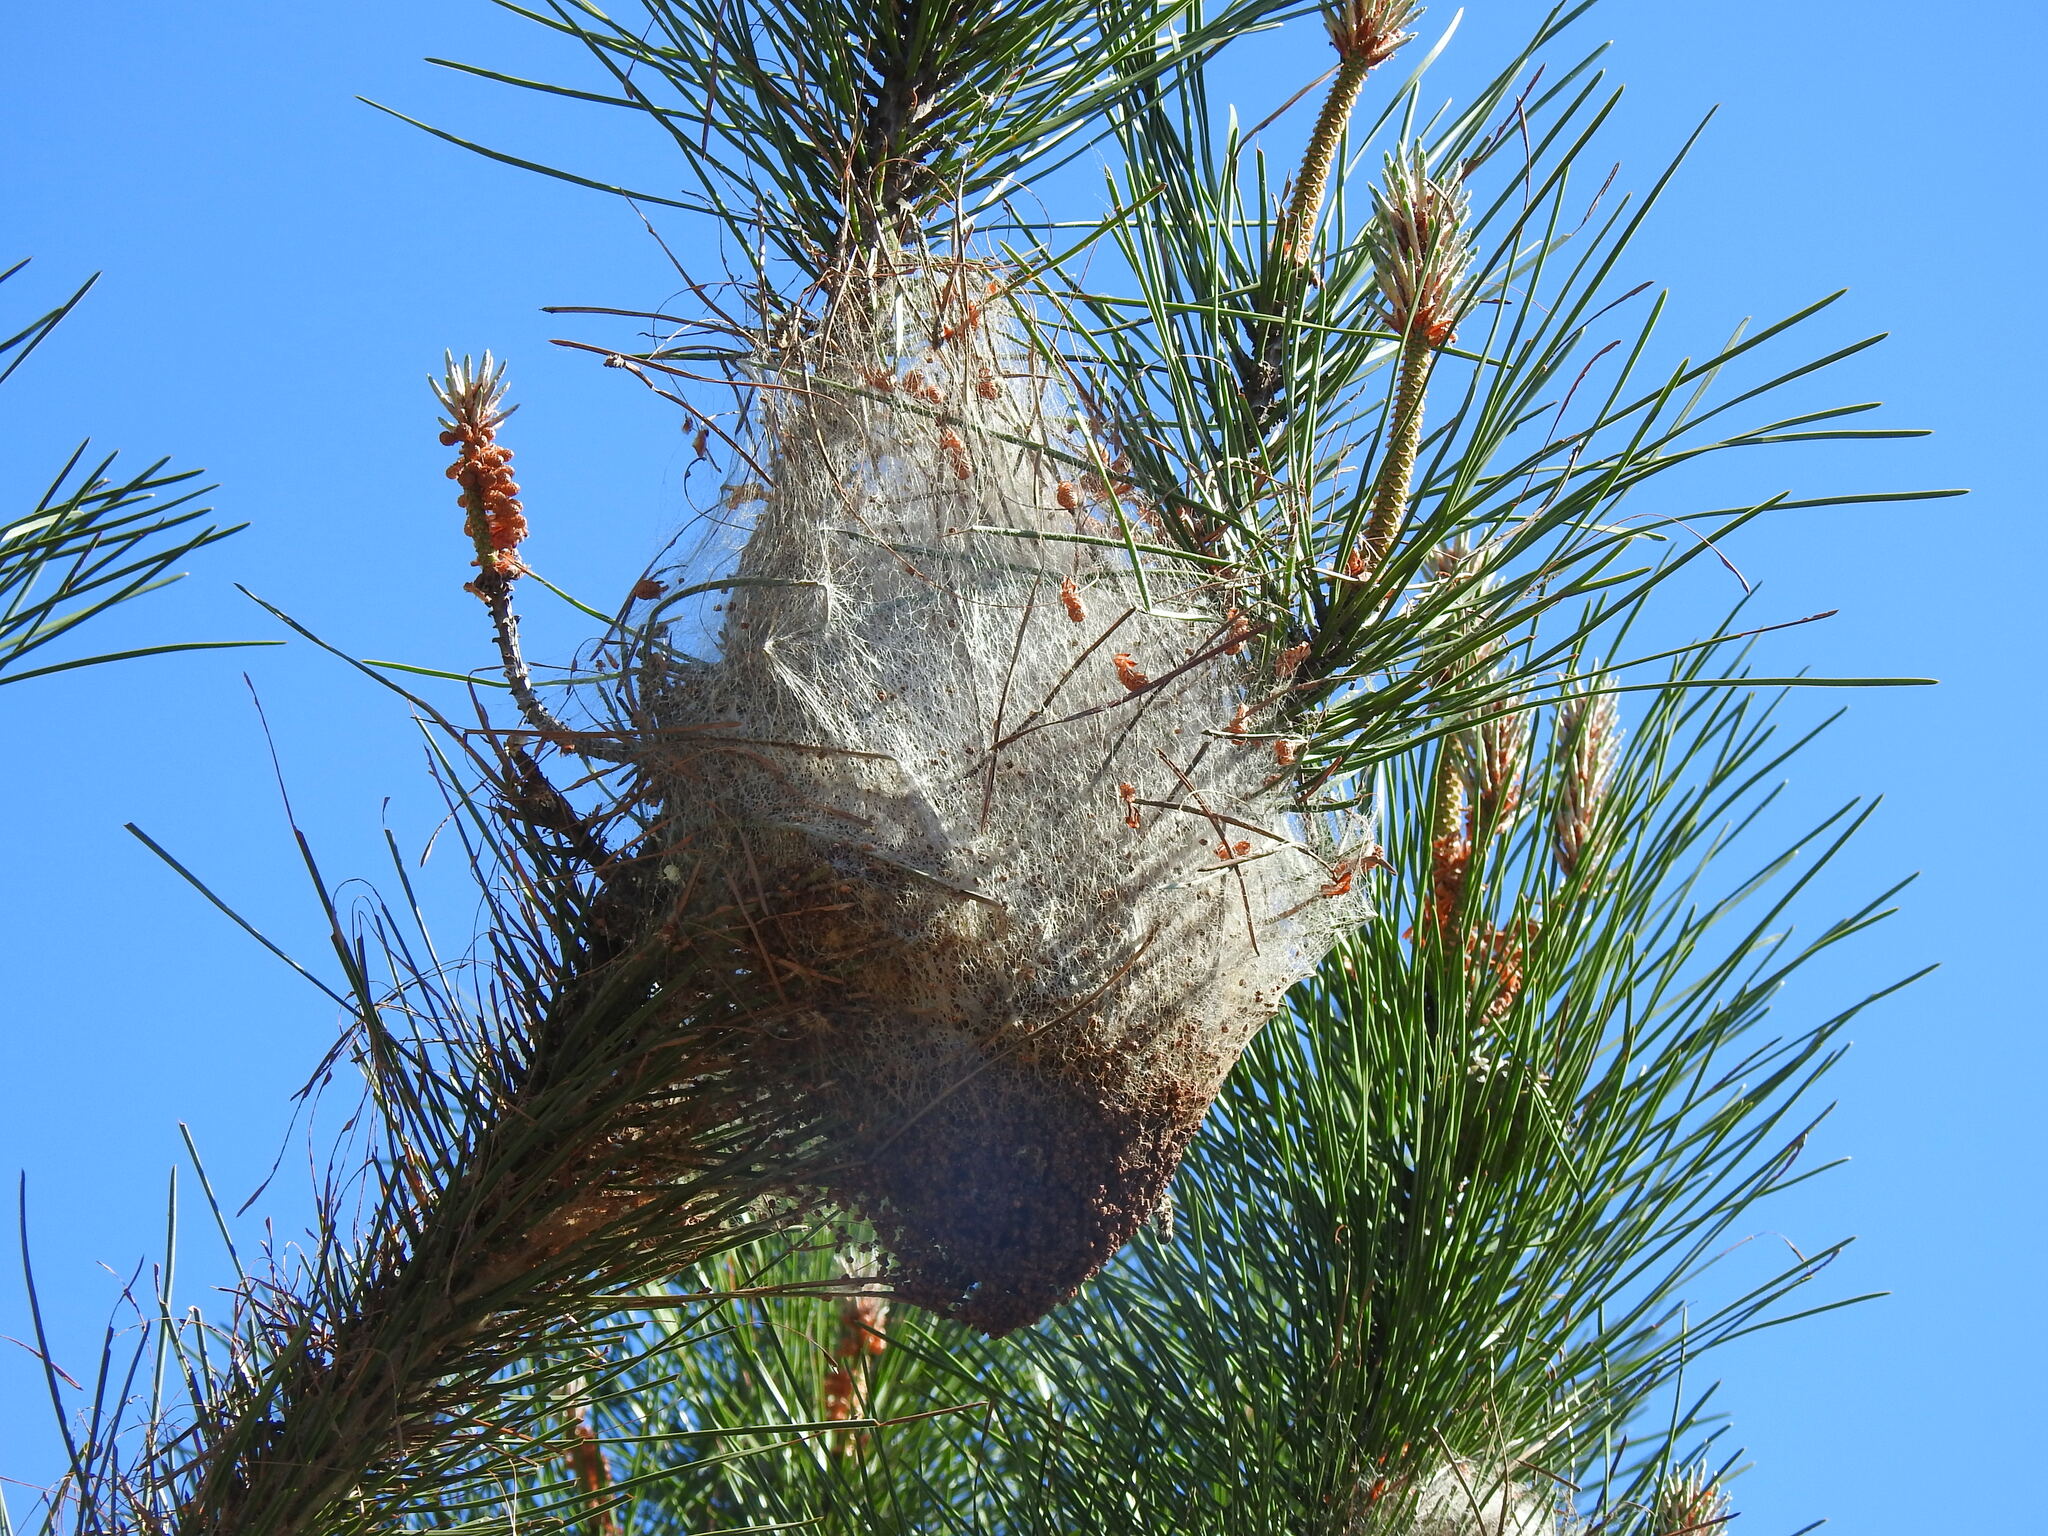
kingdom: Animalia
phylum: Arthropoda
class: Insecta
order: Lepidoptera
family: Notodontidae
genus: Thaumetopoea
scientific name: Thaumetopoea pityocampa
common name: Pine processionary
